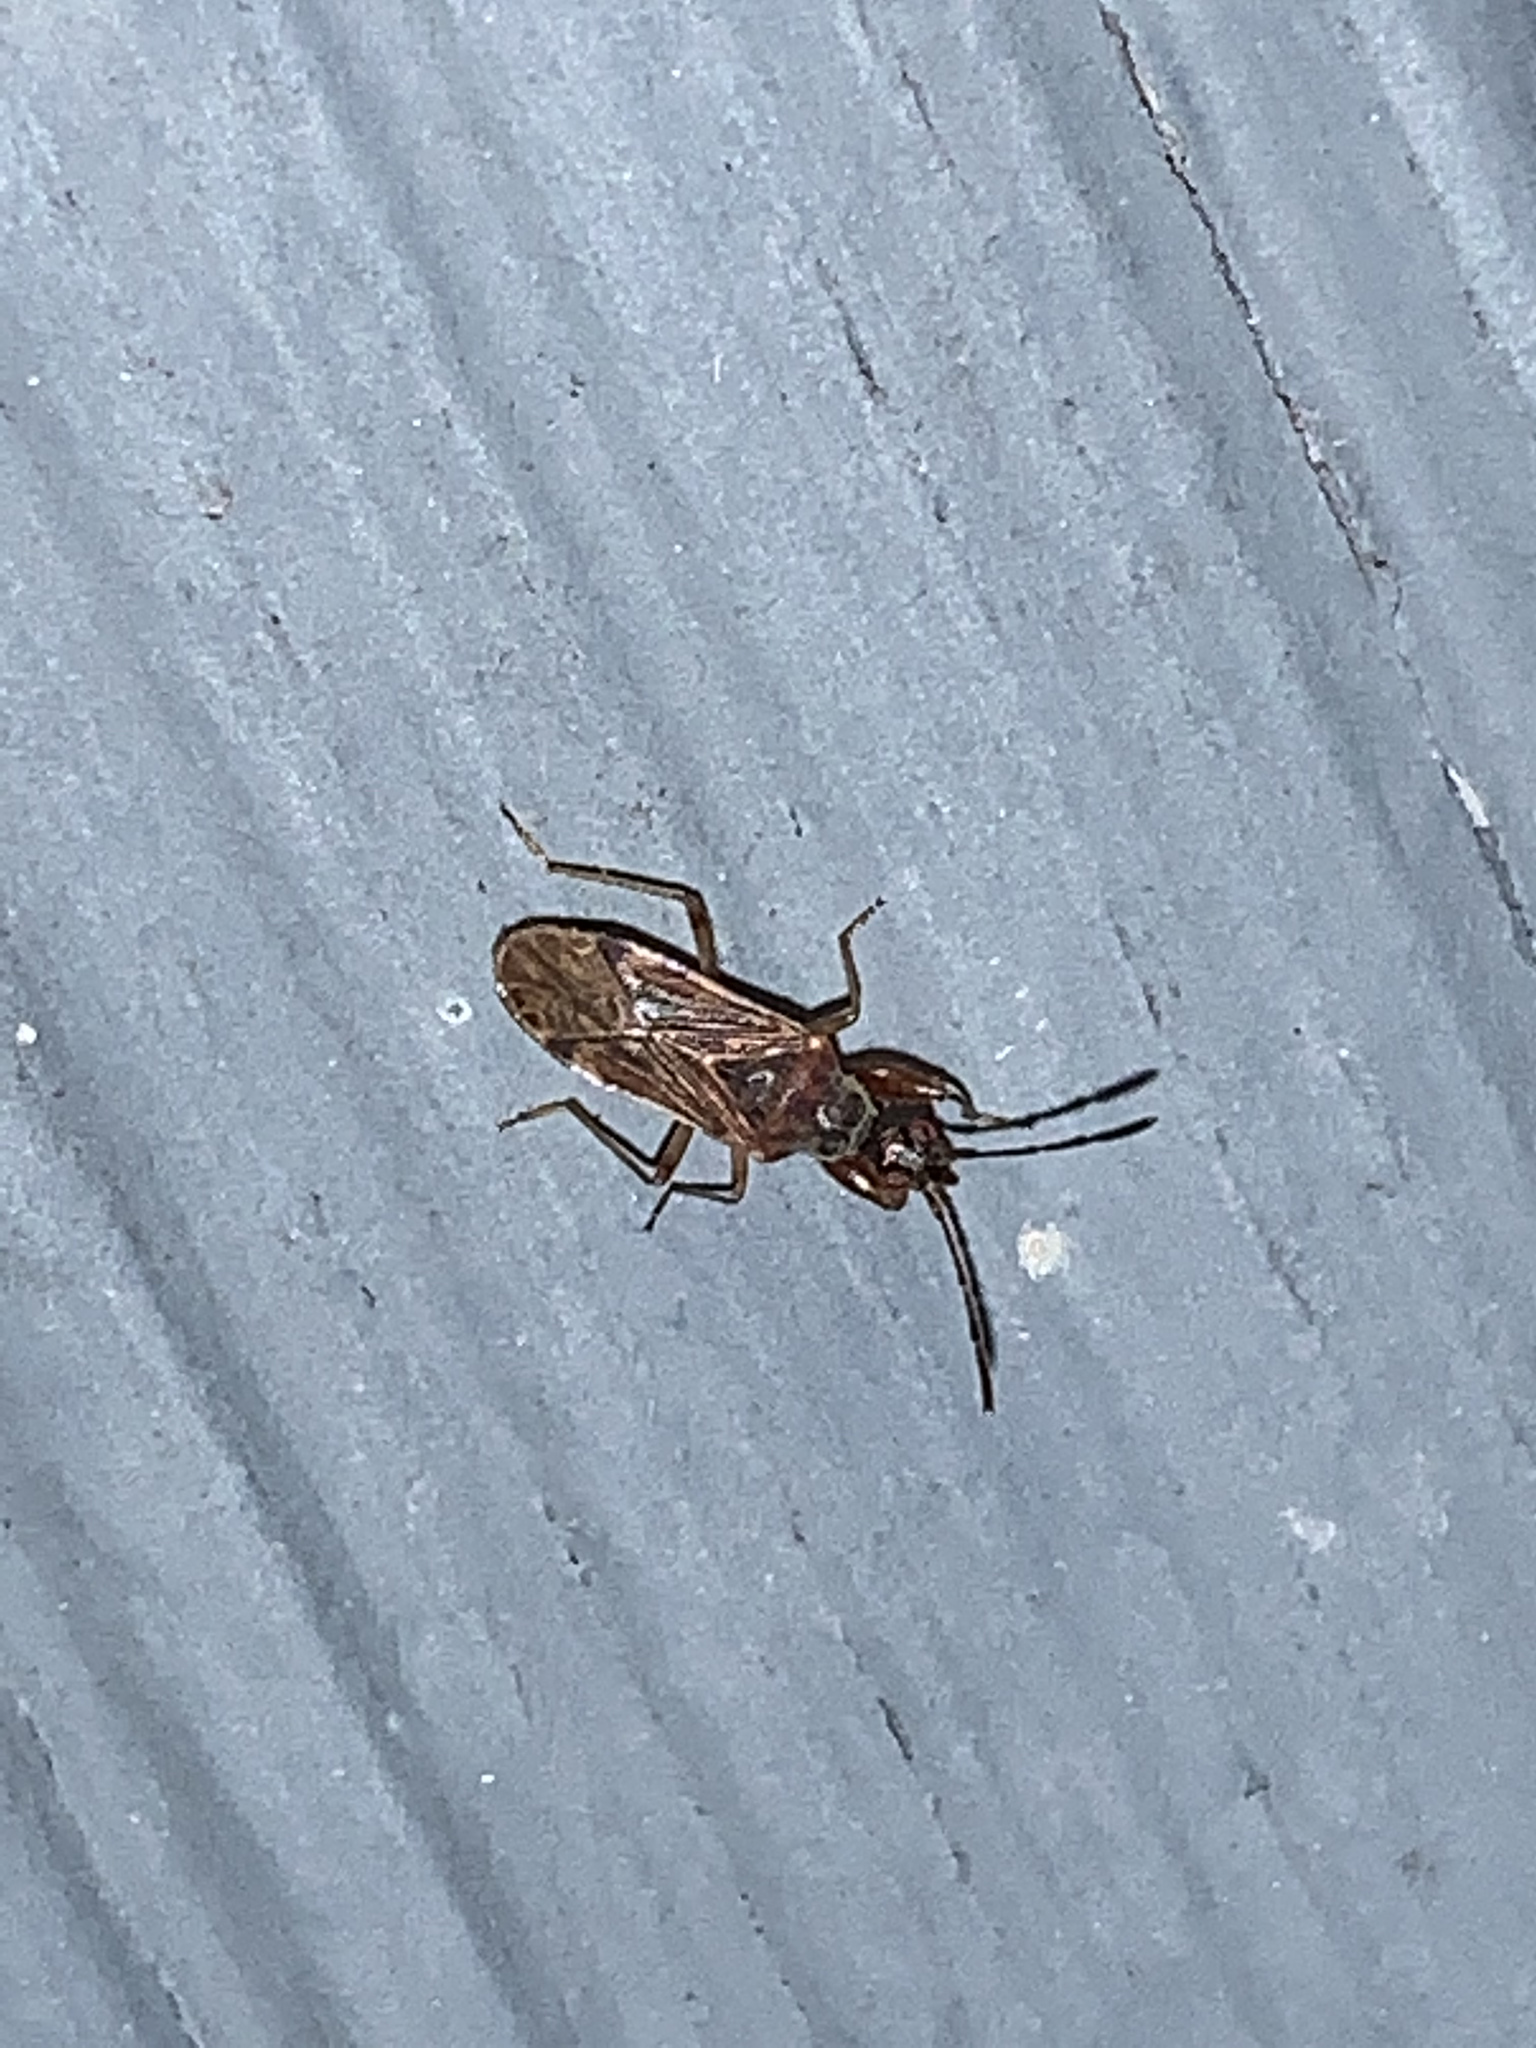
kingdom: Animalia
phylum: Arthropoda
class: Insecta
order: Hemiptera
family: Rhyparochromidae
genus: Heraeus
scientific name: Heraeus plebejus
